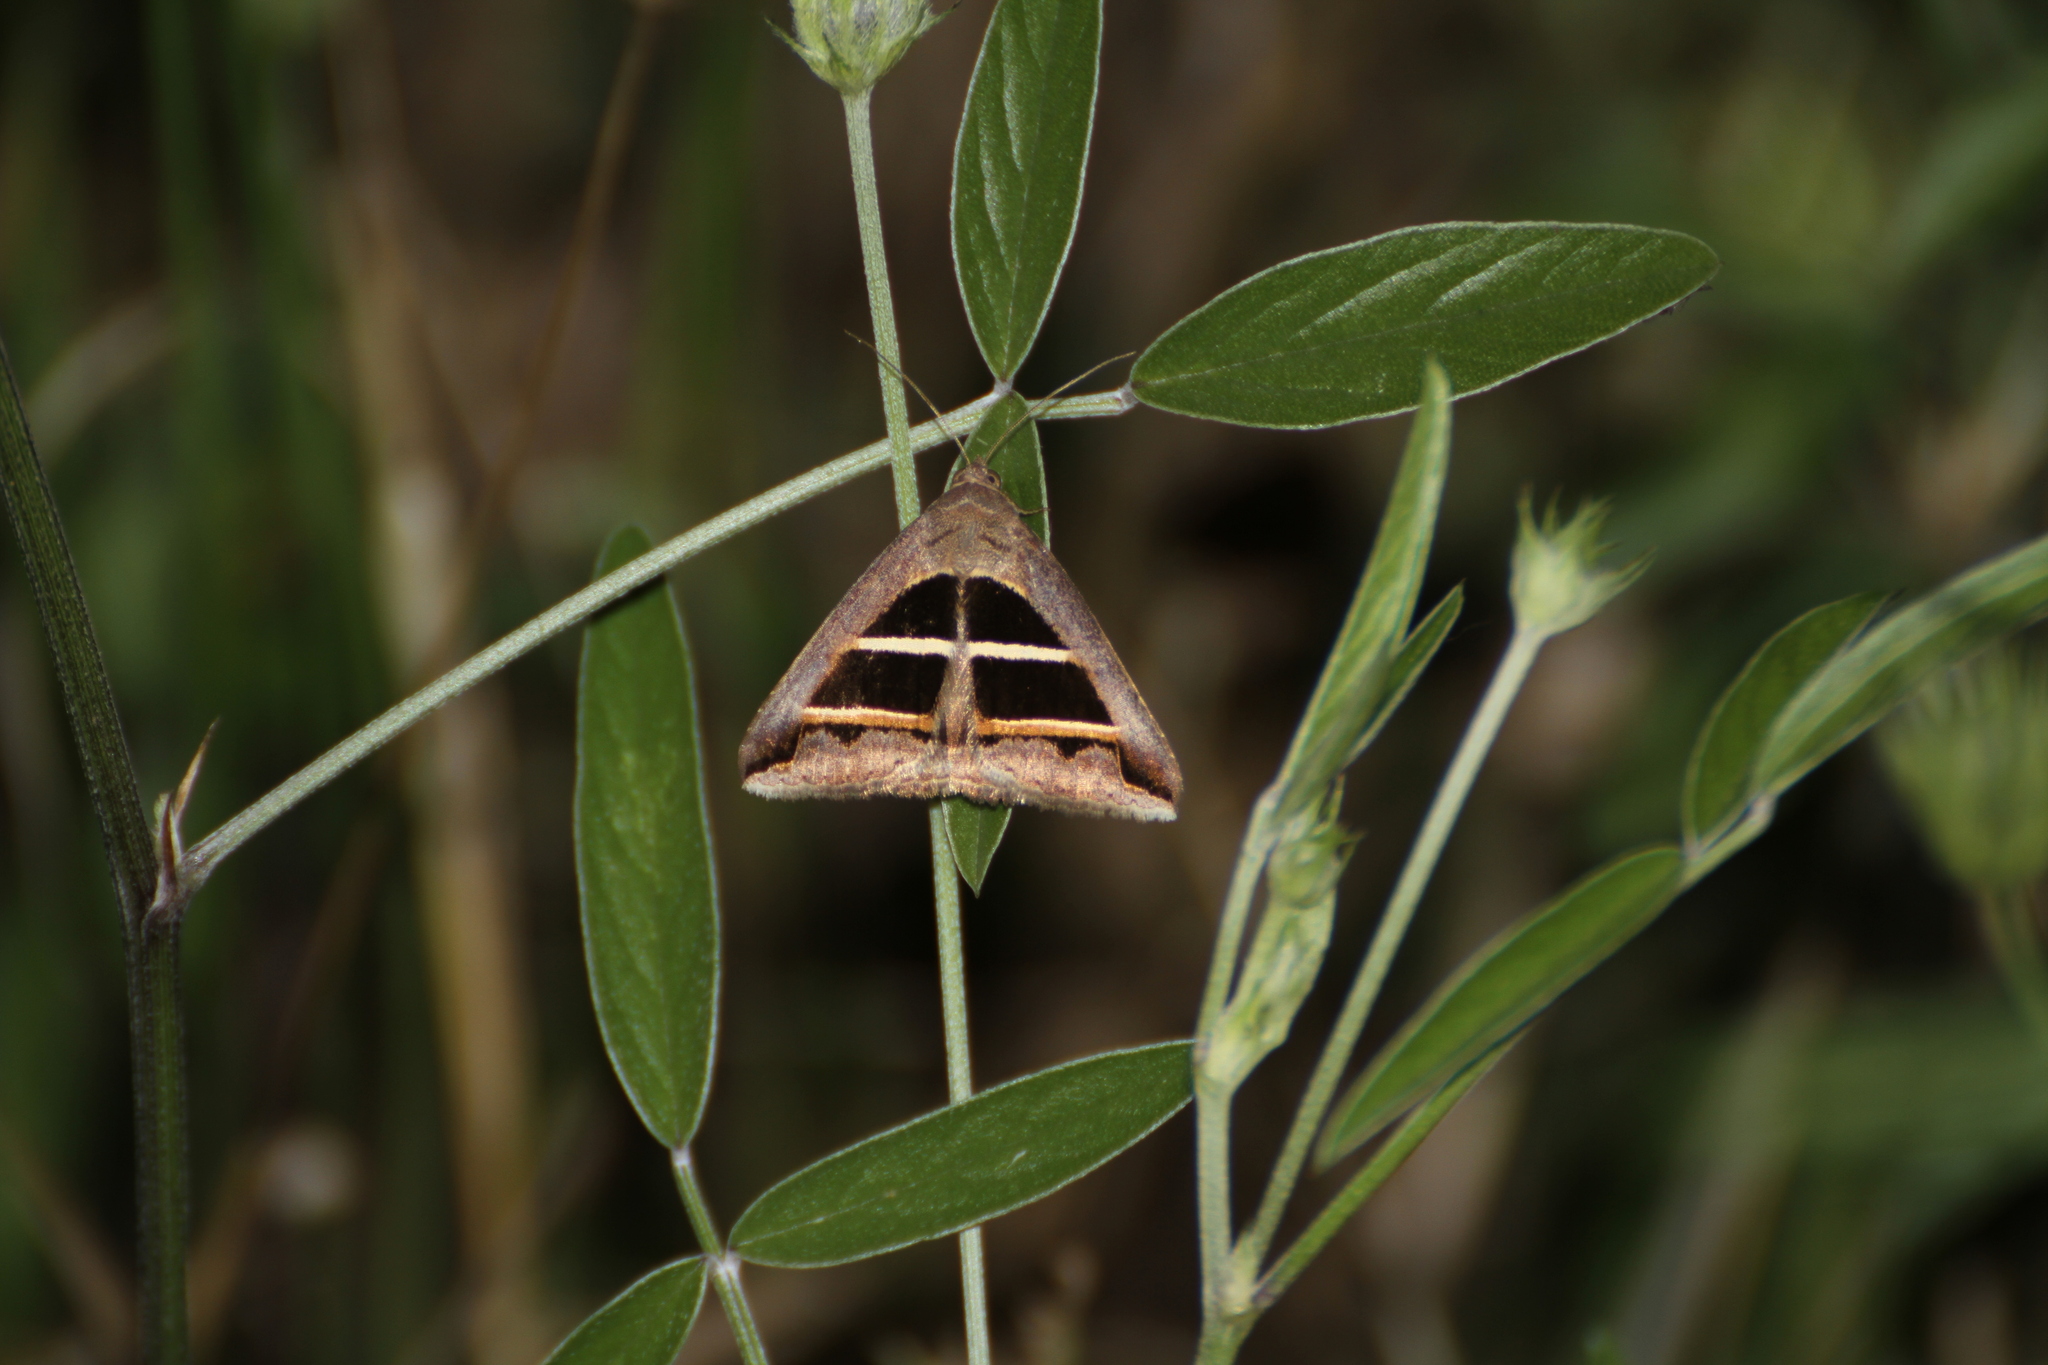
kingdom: Animalia
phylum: Arthropoda
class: Insecta
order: Lepidoptera
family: Erebidae
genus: Grammodes
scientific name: Grammodes bifasciata
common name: Parallel lines
